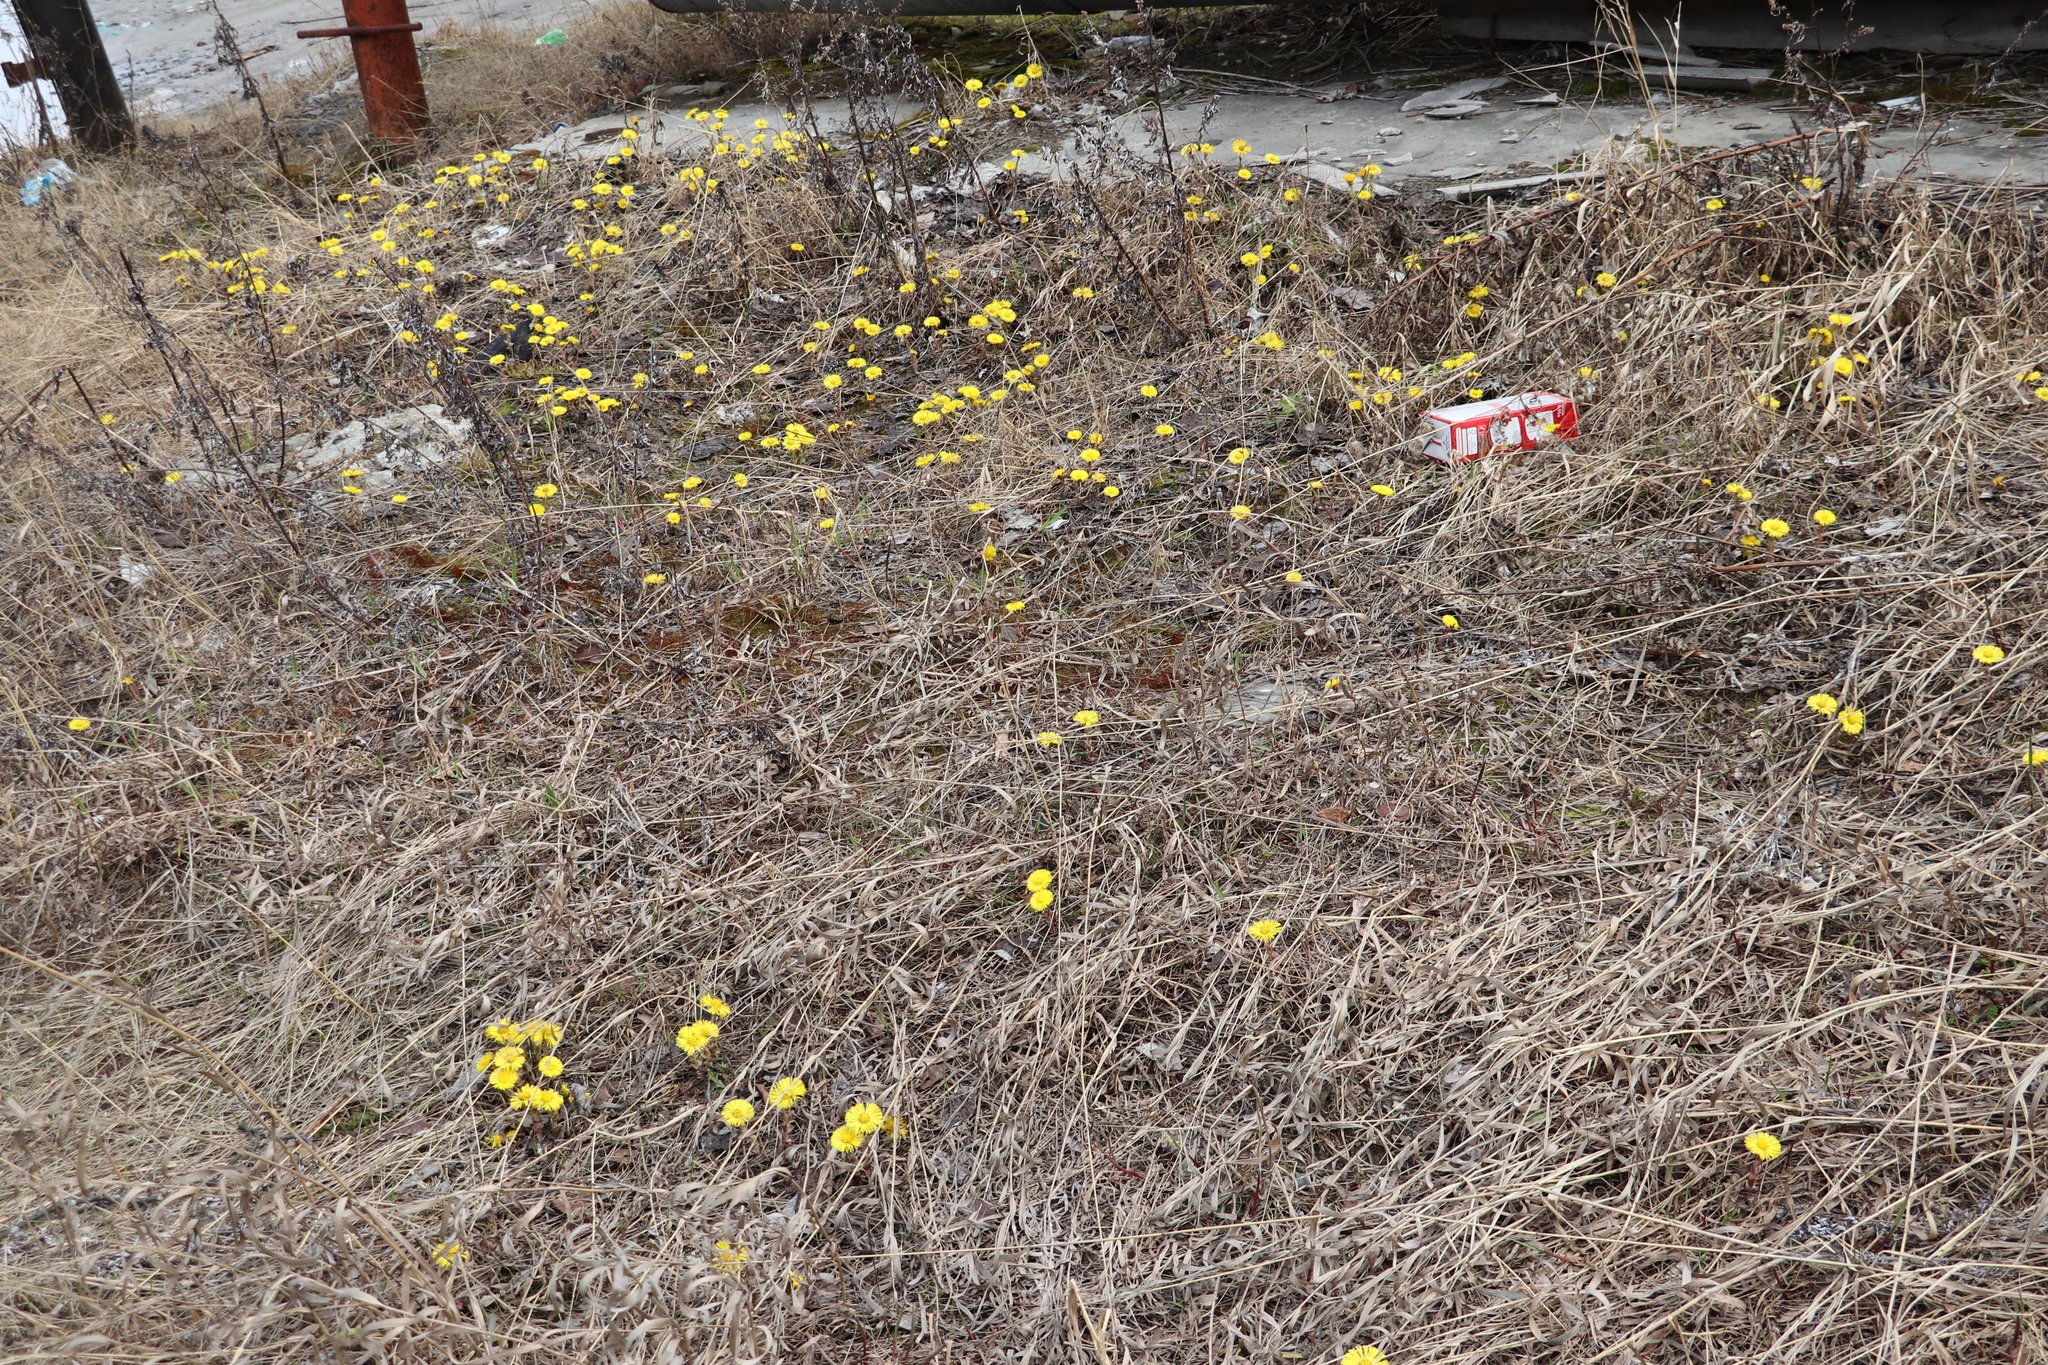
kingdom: Plantae
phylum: Tracheophyta
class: Magnoliopsida
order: Asterales
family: Asteraceae
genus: Tussilago
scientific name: Tussilago farfara
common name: Coltsfoot
